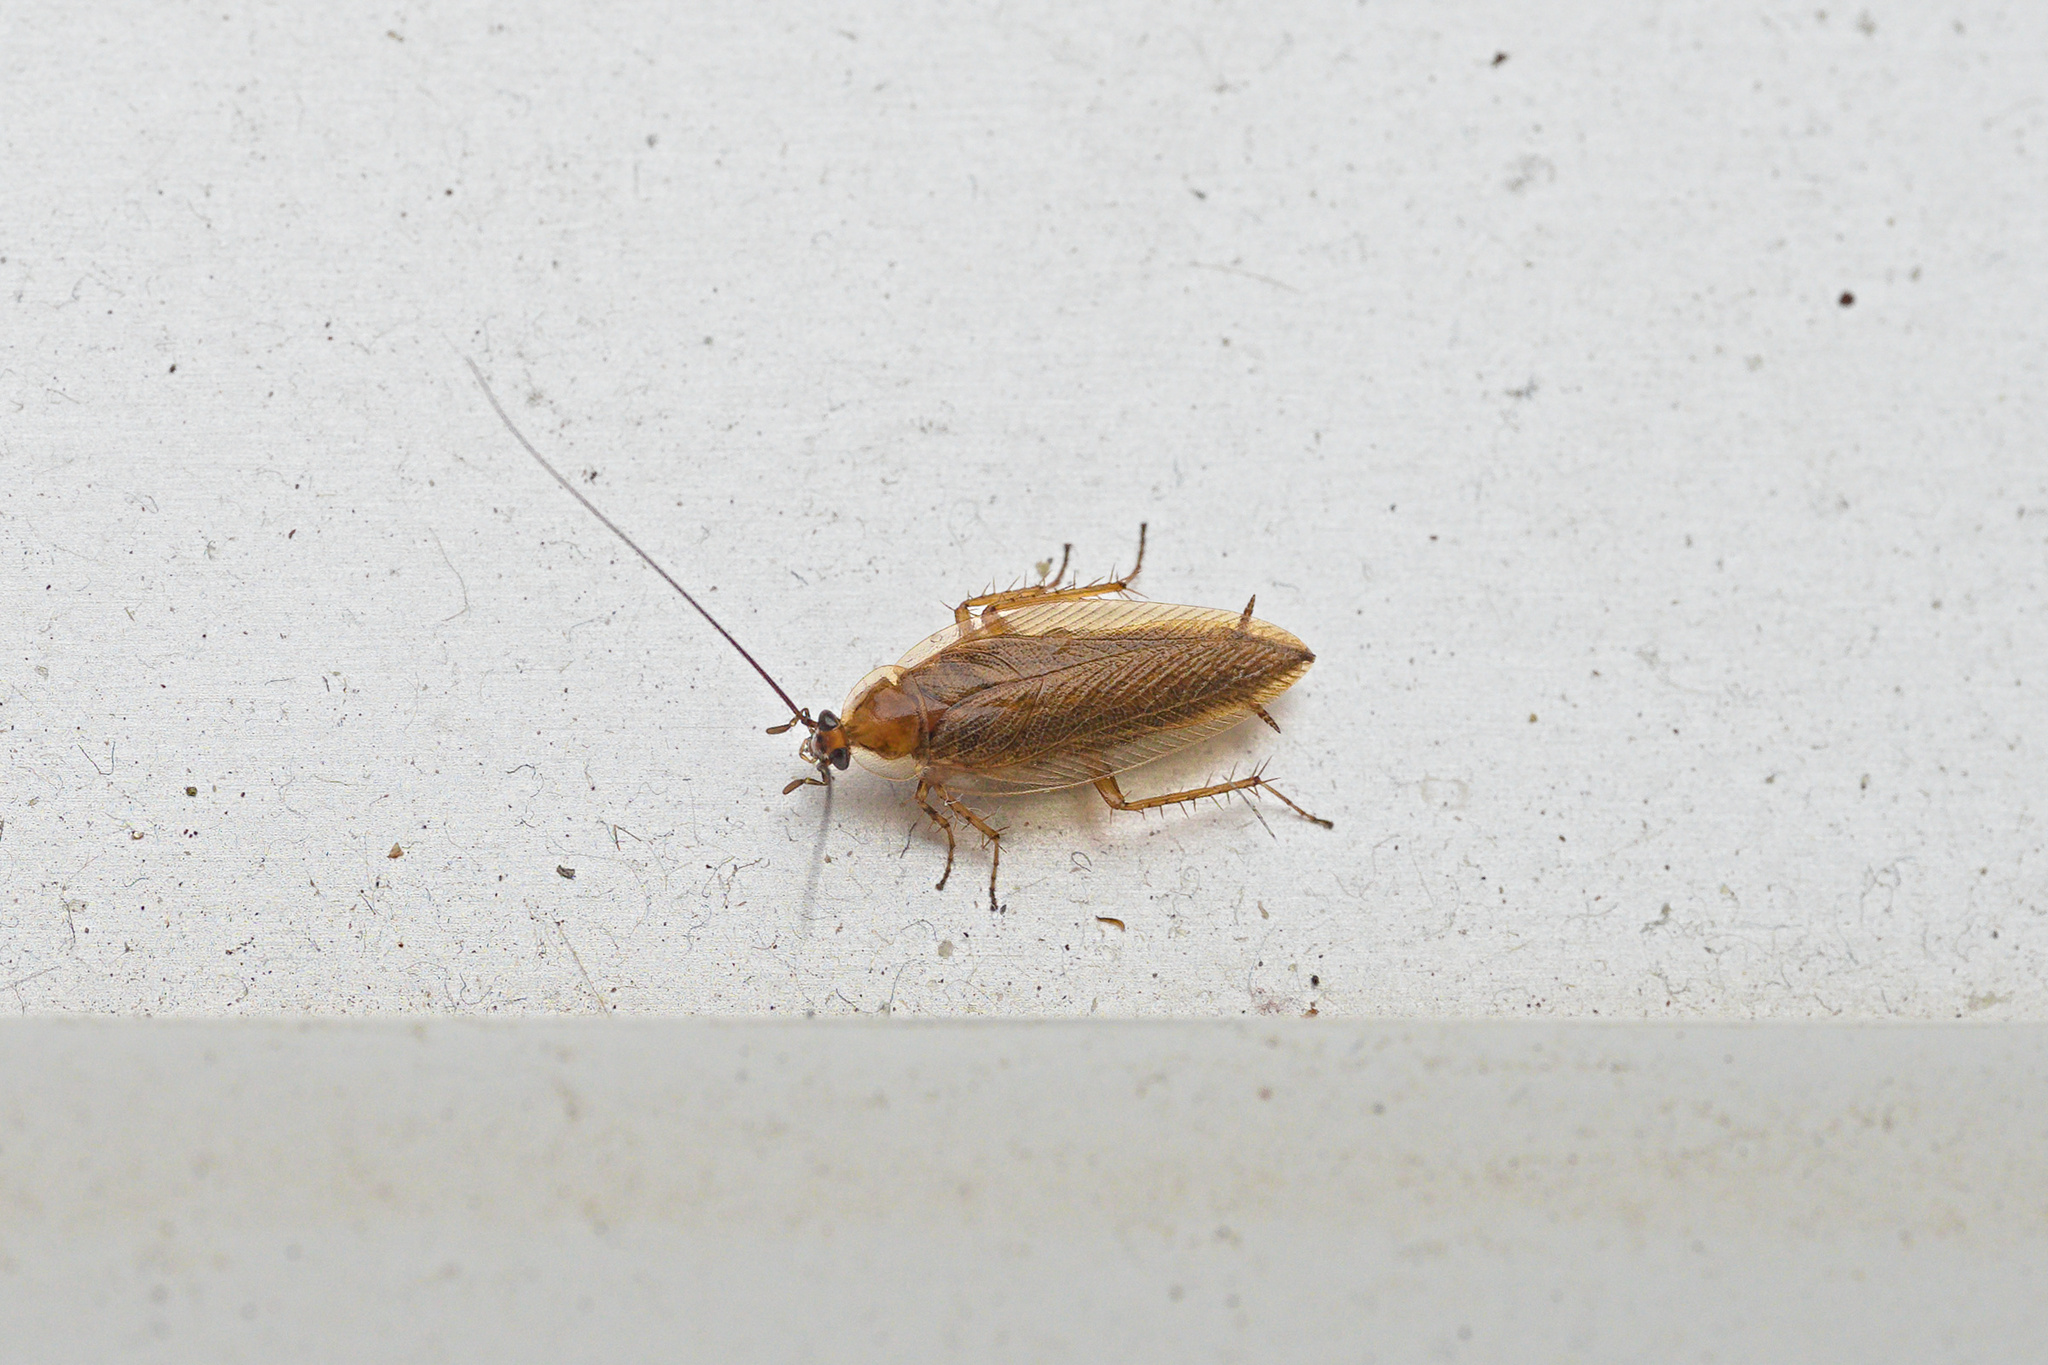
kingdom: Animalia
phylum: Arthropoda
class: Insecta
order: Blattodea
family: Ectobiidae
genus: Ectobius
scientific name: Ectobius vittiventris
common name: Garden cockroach
